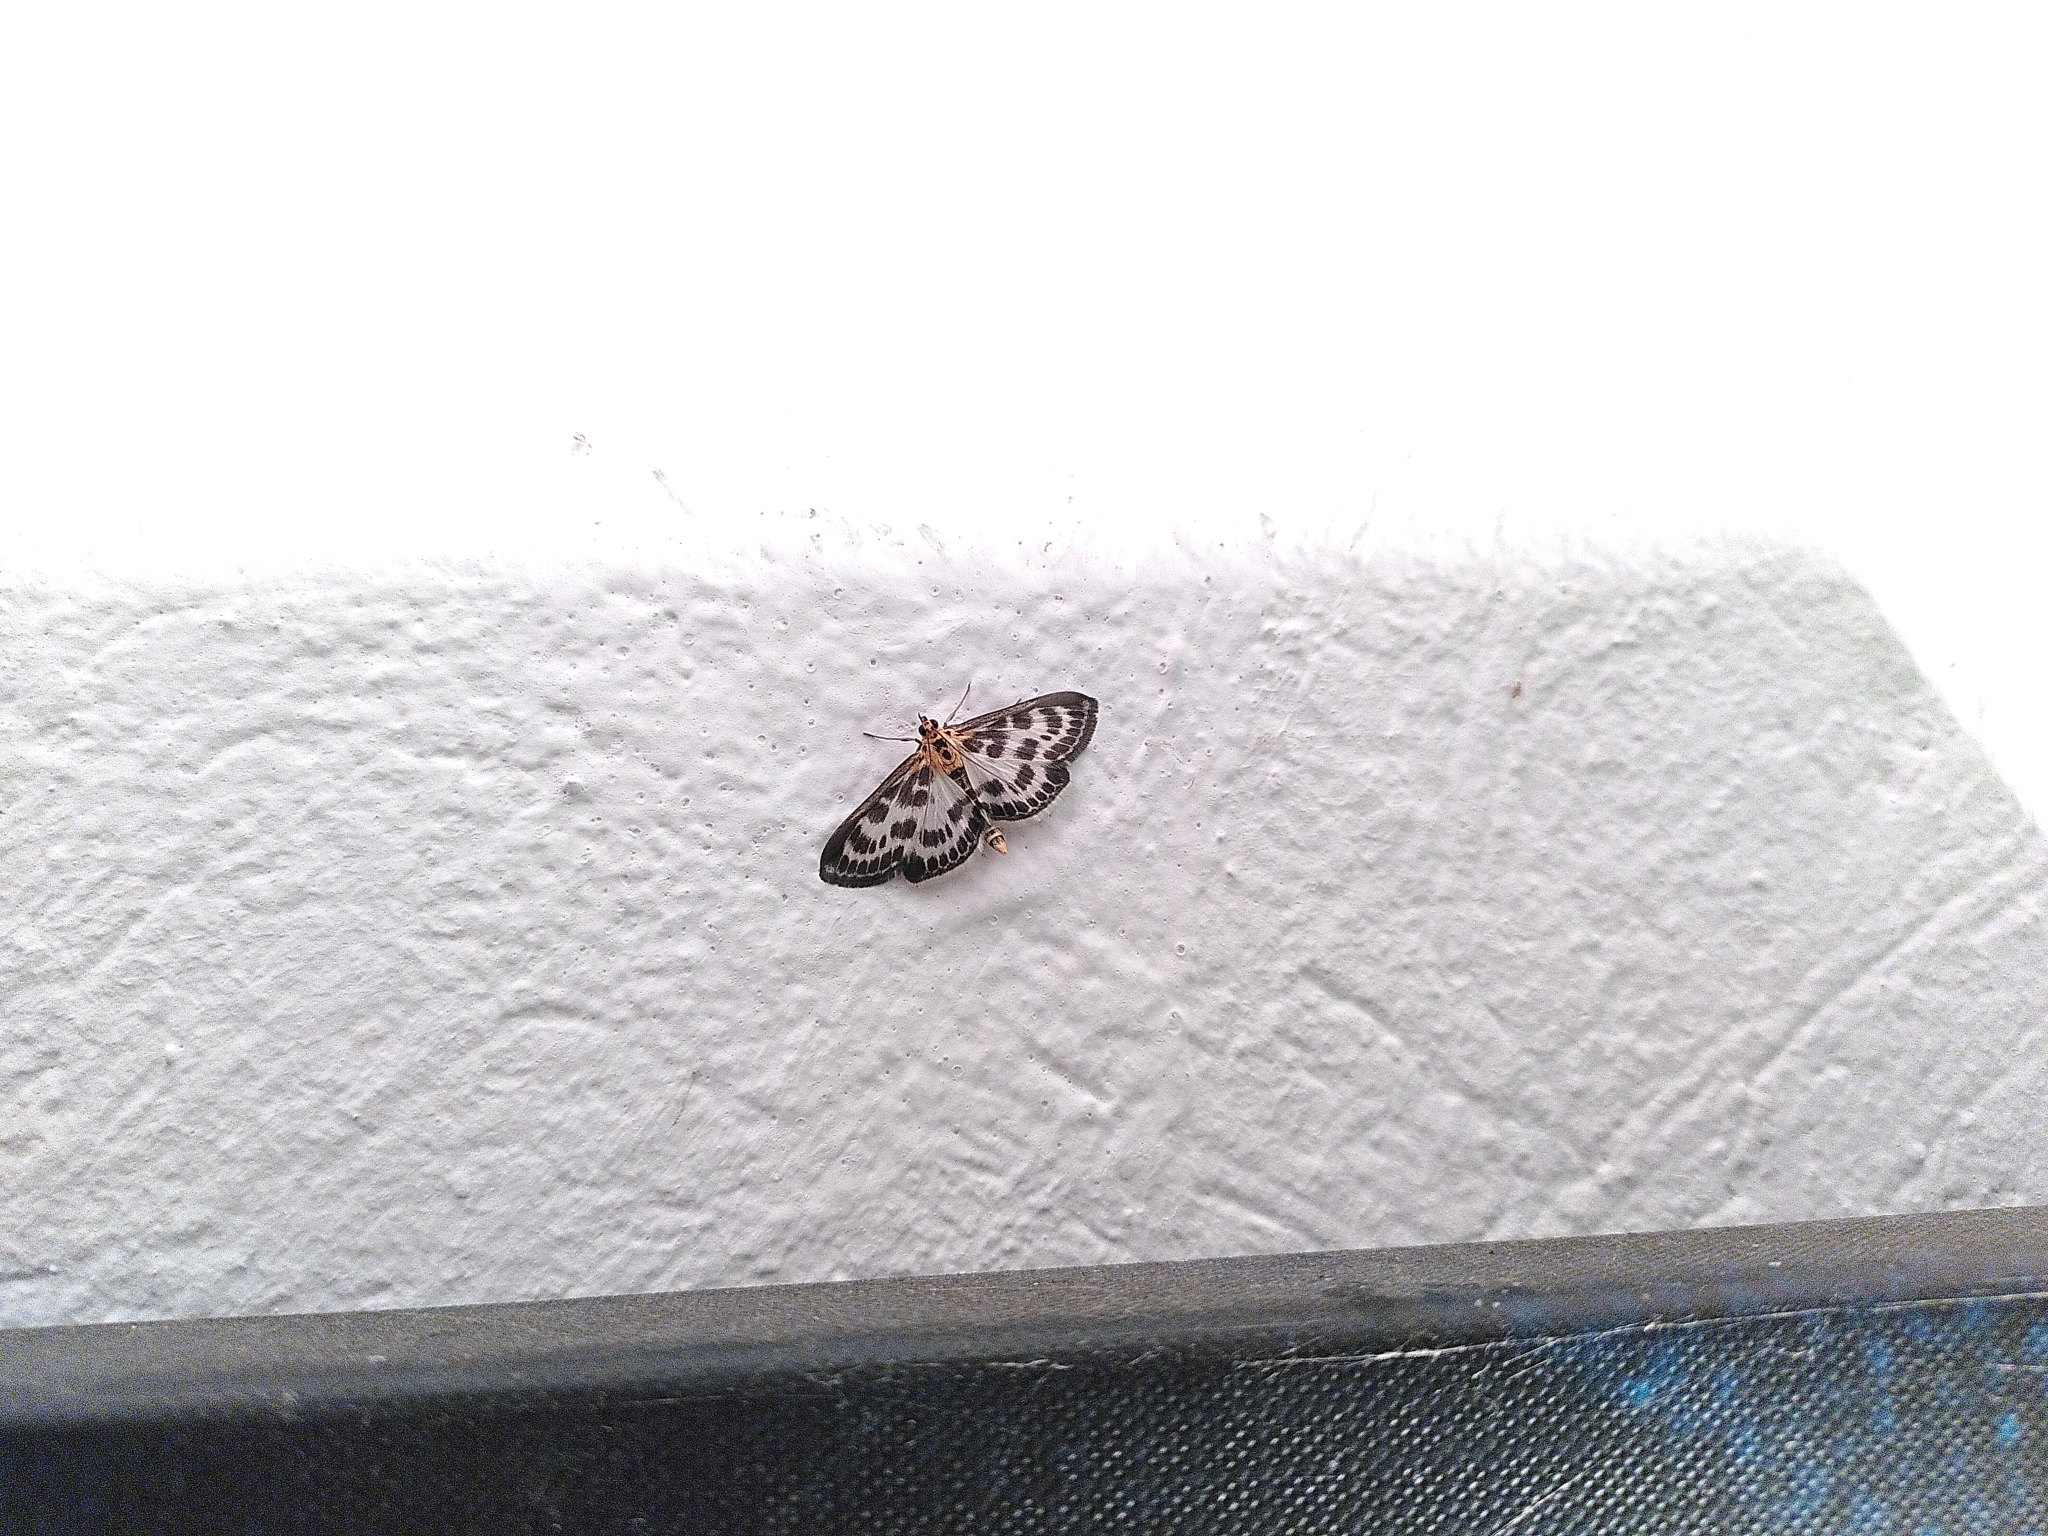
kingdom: Animalia
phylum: Arthropoda
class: Insecta
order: Lepidoptera
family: Crambidae
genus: Anania
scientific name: Anania hortulata
